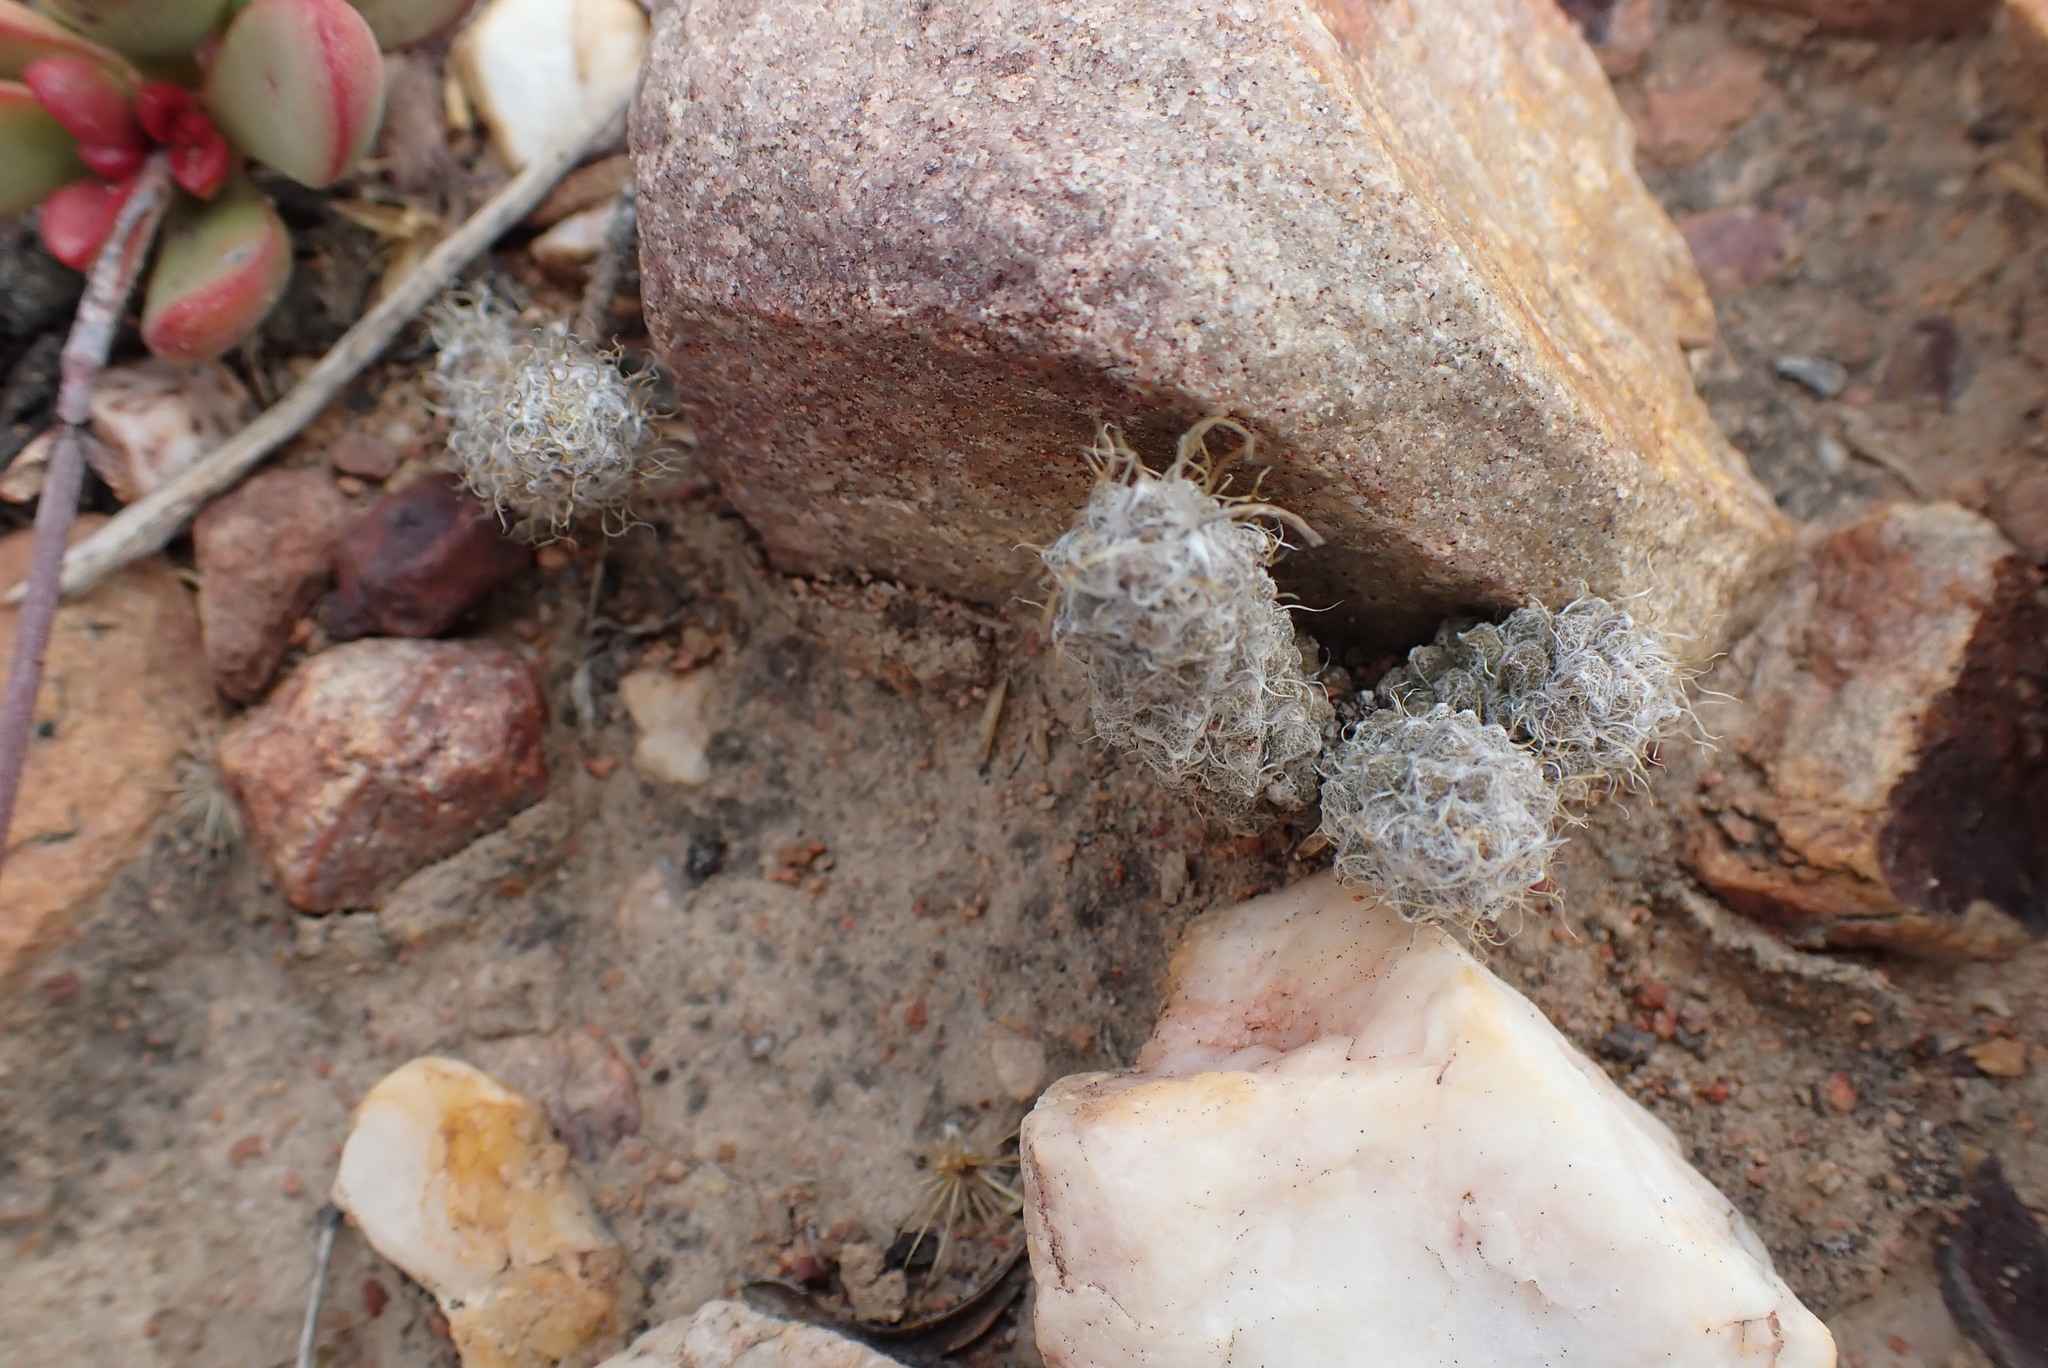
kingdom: Plantae
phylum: Tracheophyta
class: Magnoliopsida
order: Caryophyllales
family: Anacampserotaceae
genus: Anacampseros
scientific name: Anacampseros filamentosa
